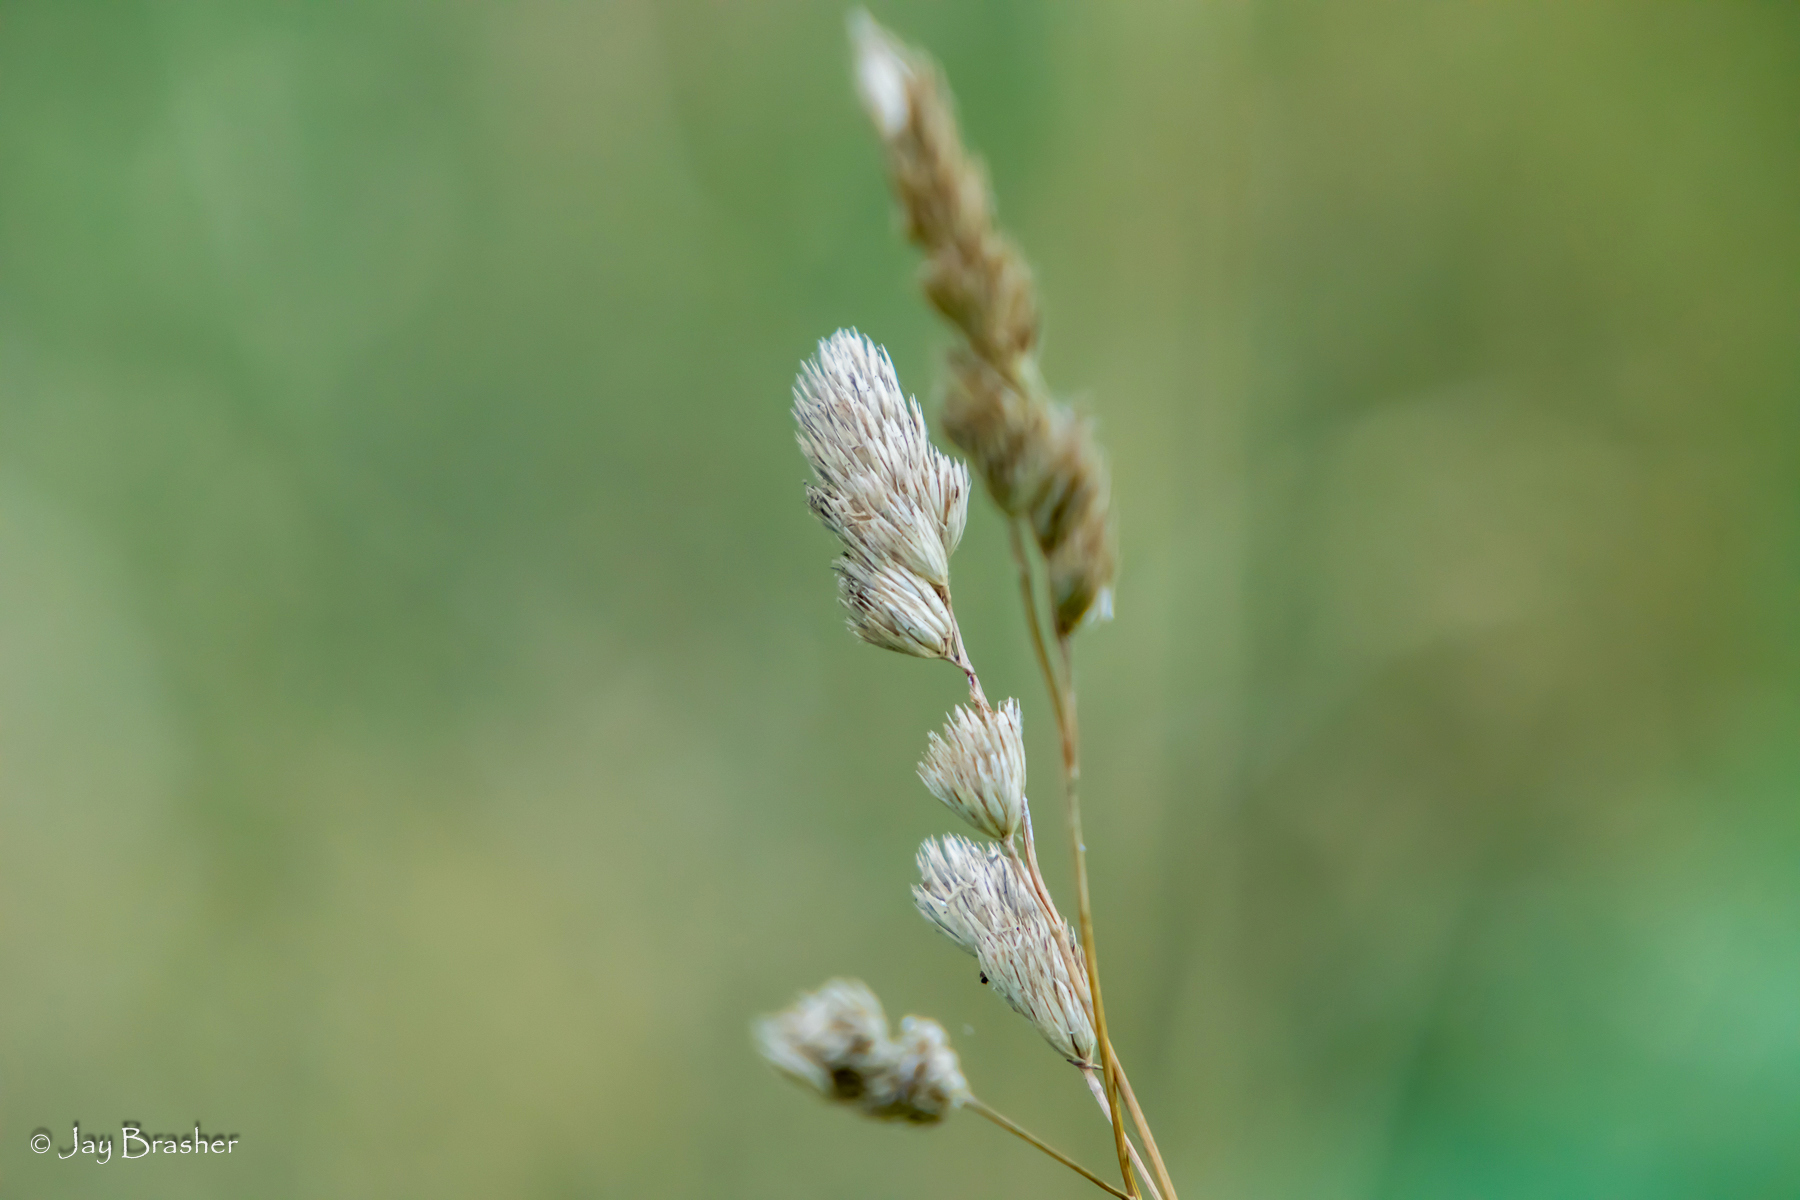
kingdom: Plantae
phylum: Tracheophyta
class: Liliopsida
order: Poales
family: Poaceae
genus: Dactylis
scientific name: Dactylis glomerata
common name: Orchardgrass
